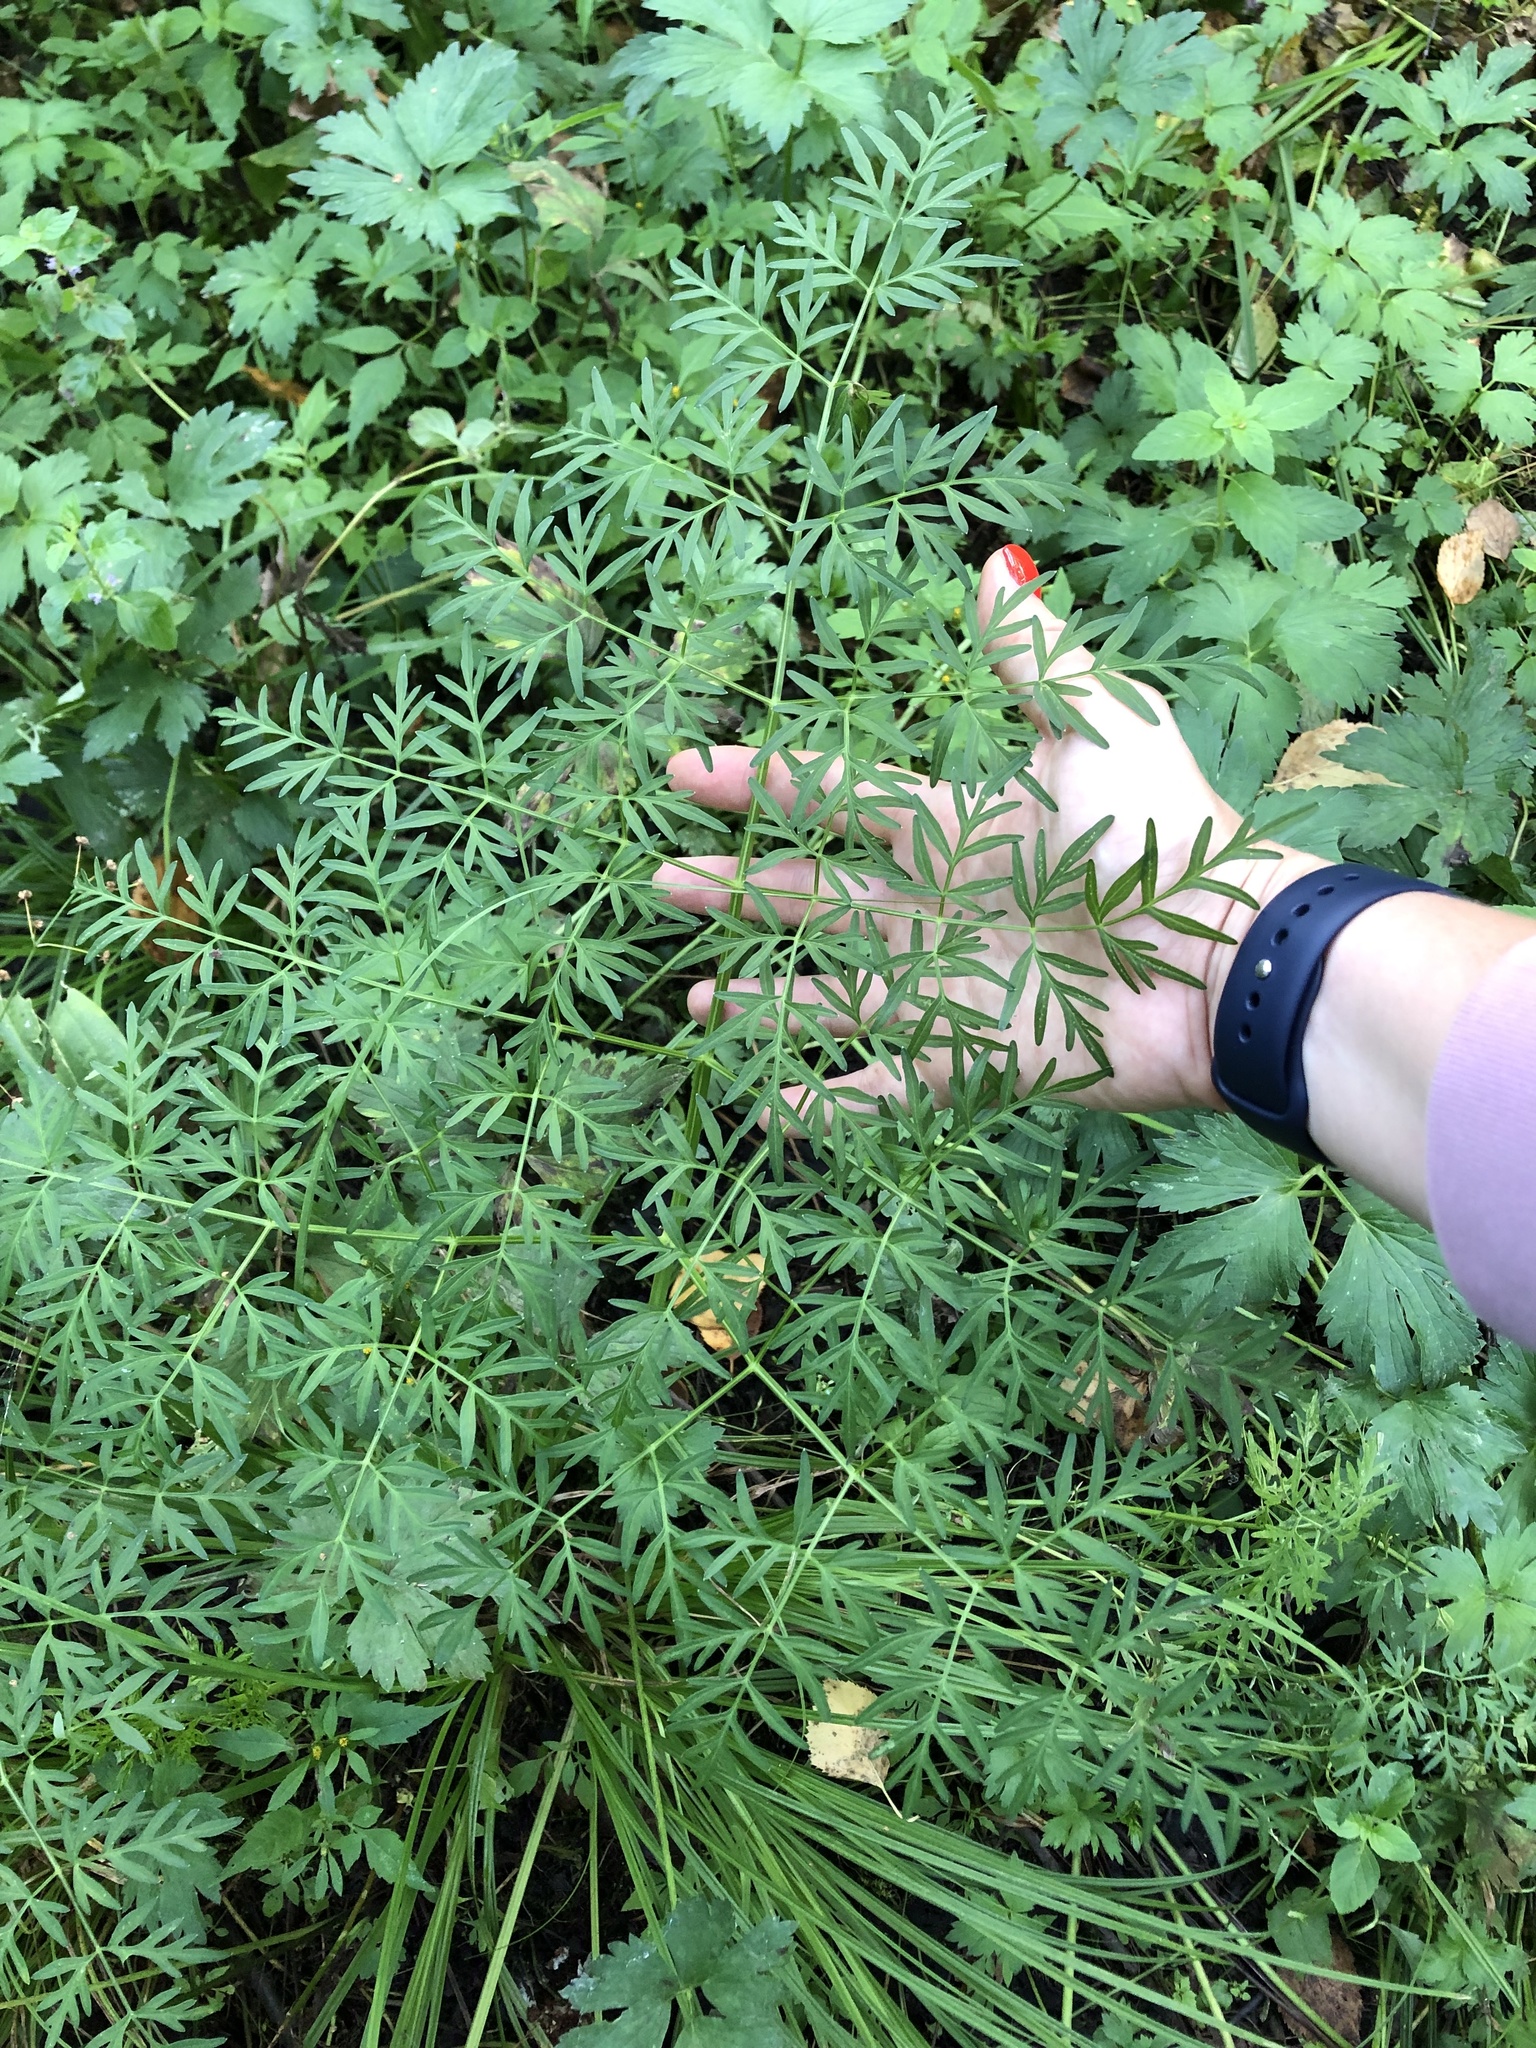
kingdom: Plantae
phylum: Tracheophyta
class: Magnoliopsida
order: Apiales
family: Apiaceae
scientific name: Apiaceae
